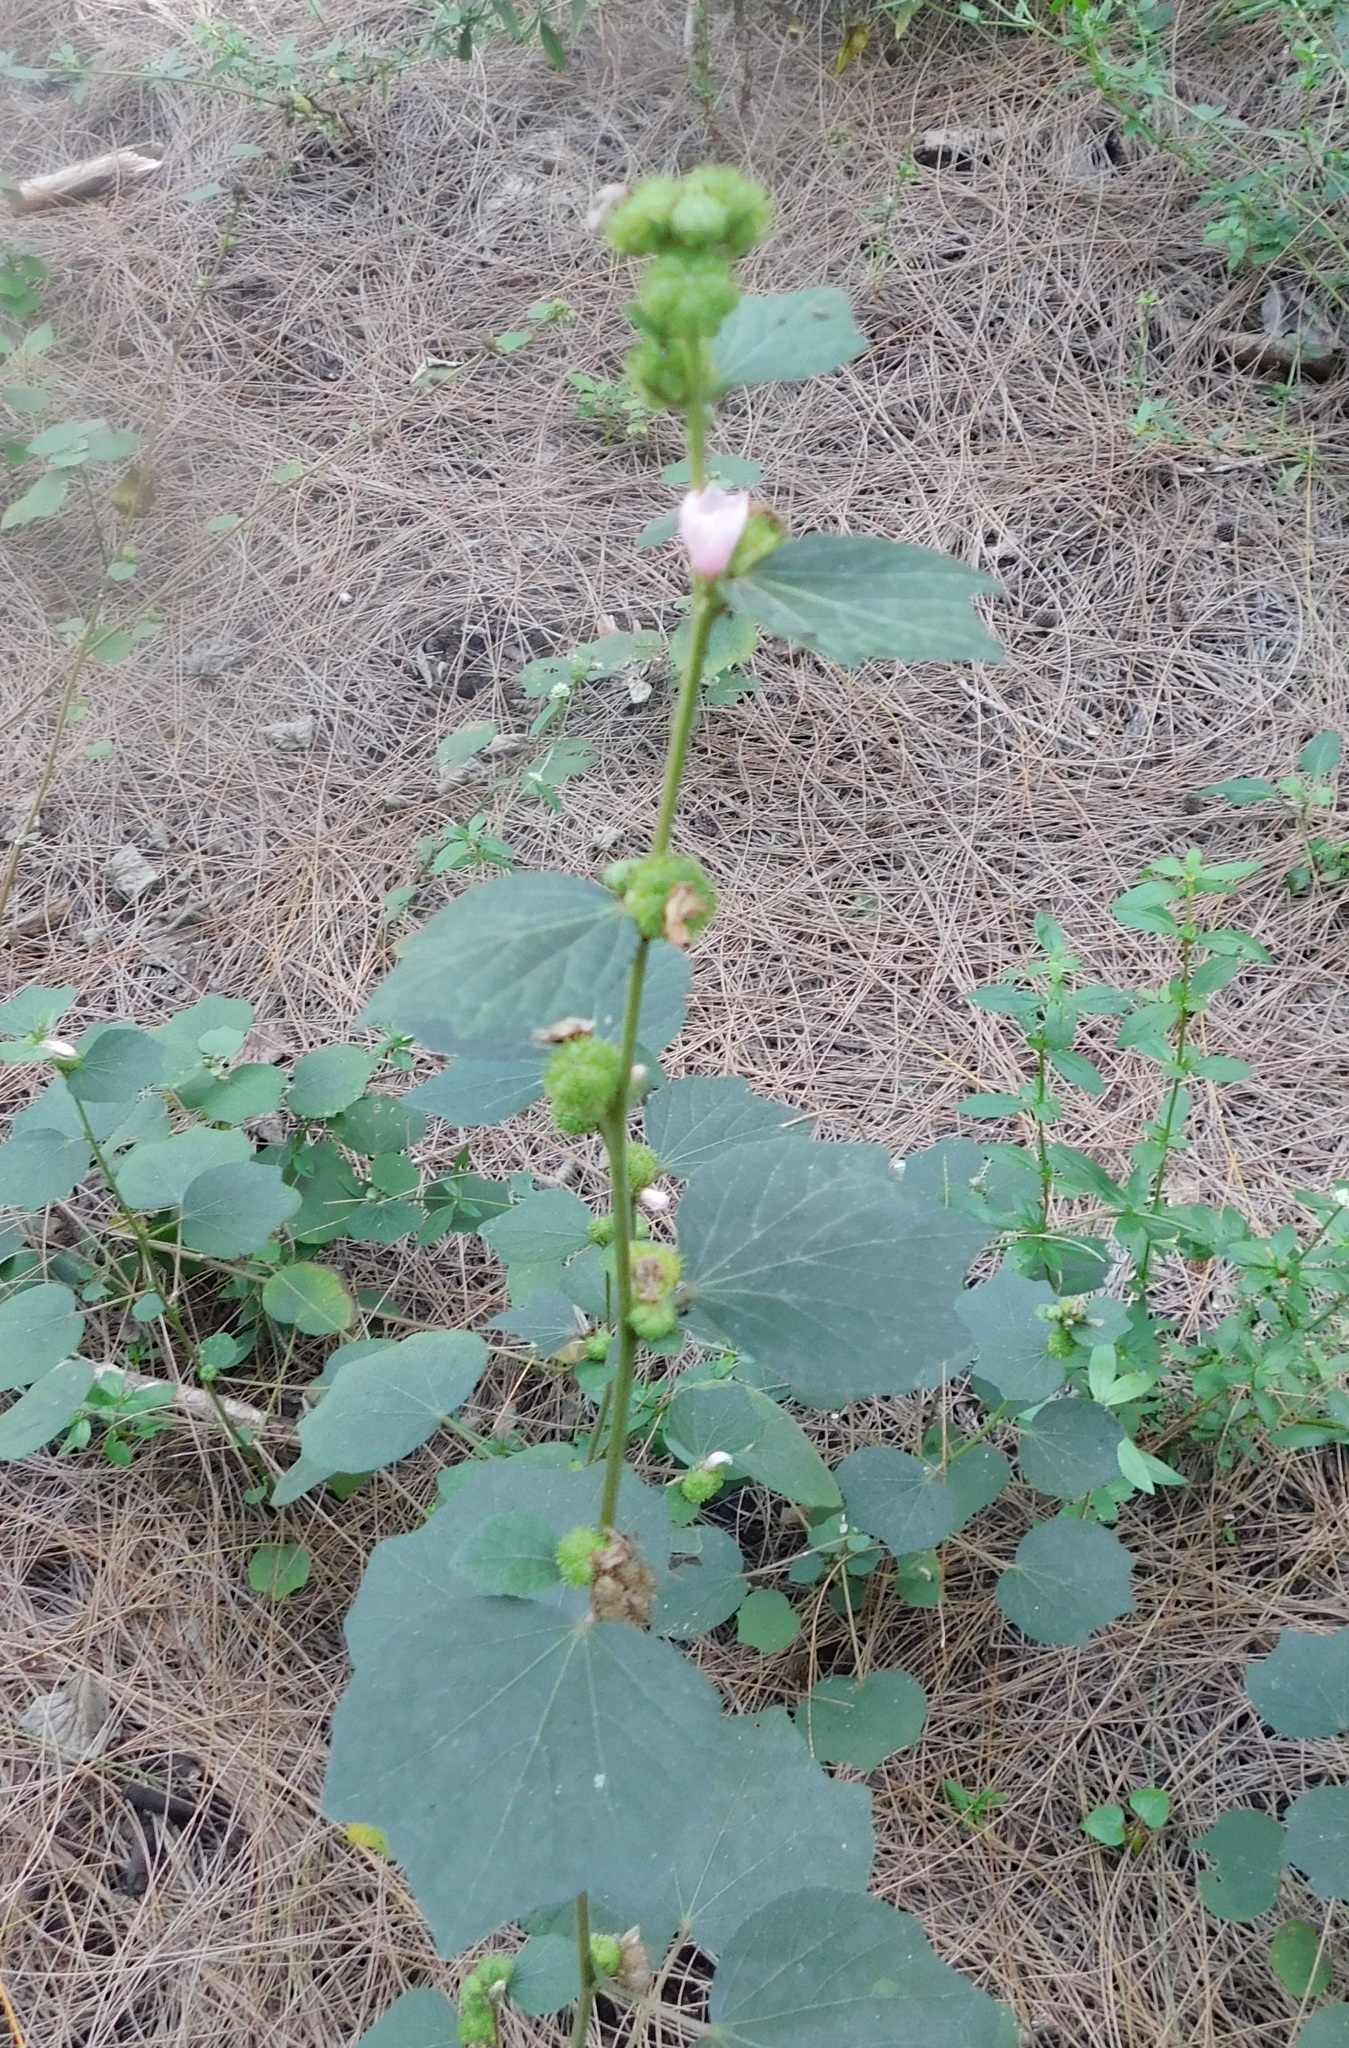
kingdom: Plantae
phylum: Tracheophyta
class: Magnoliopsida
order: Malvales
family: Malvaceae
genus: Urena
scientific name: Urena lobata
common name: Caesarweed
